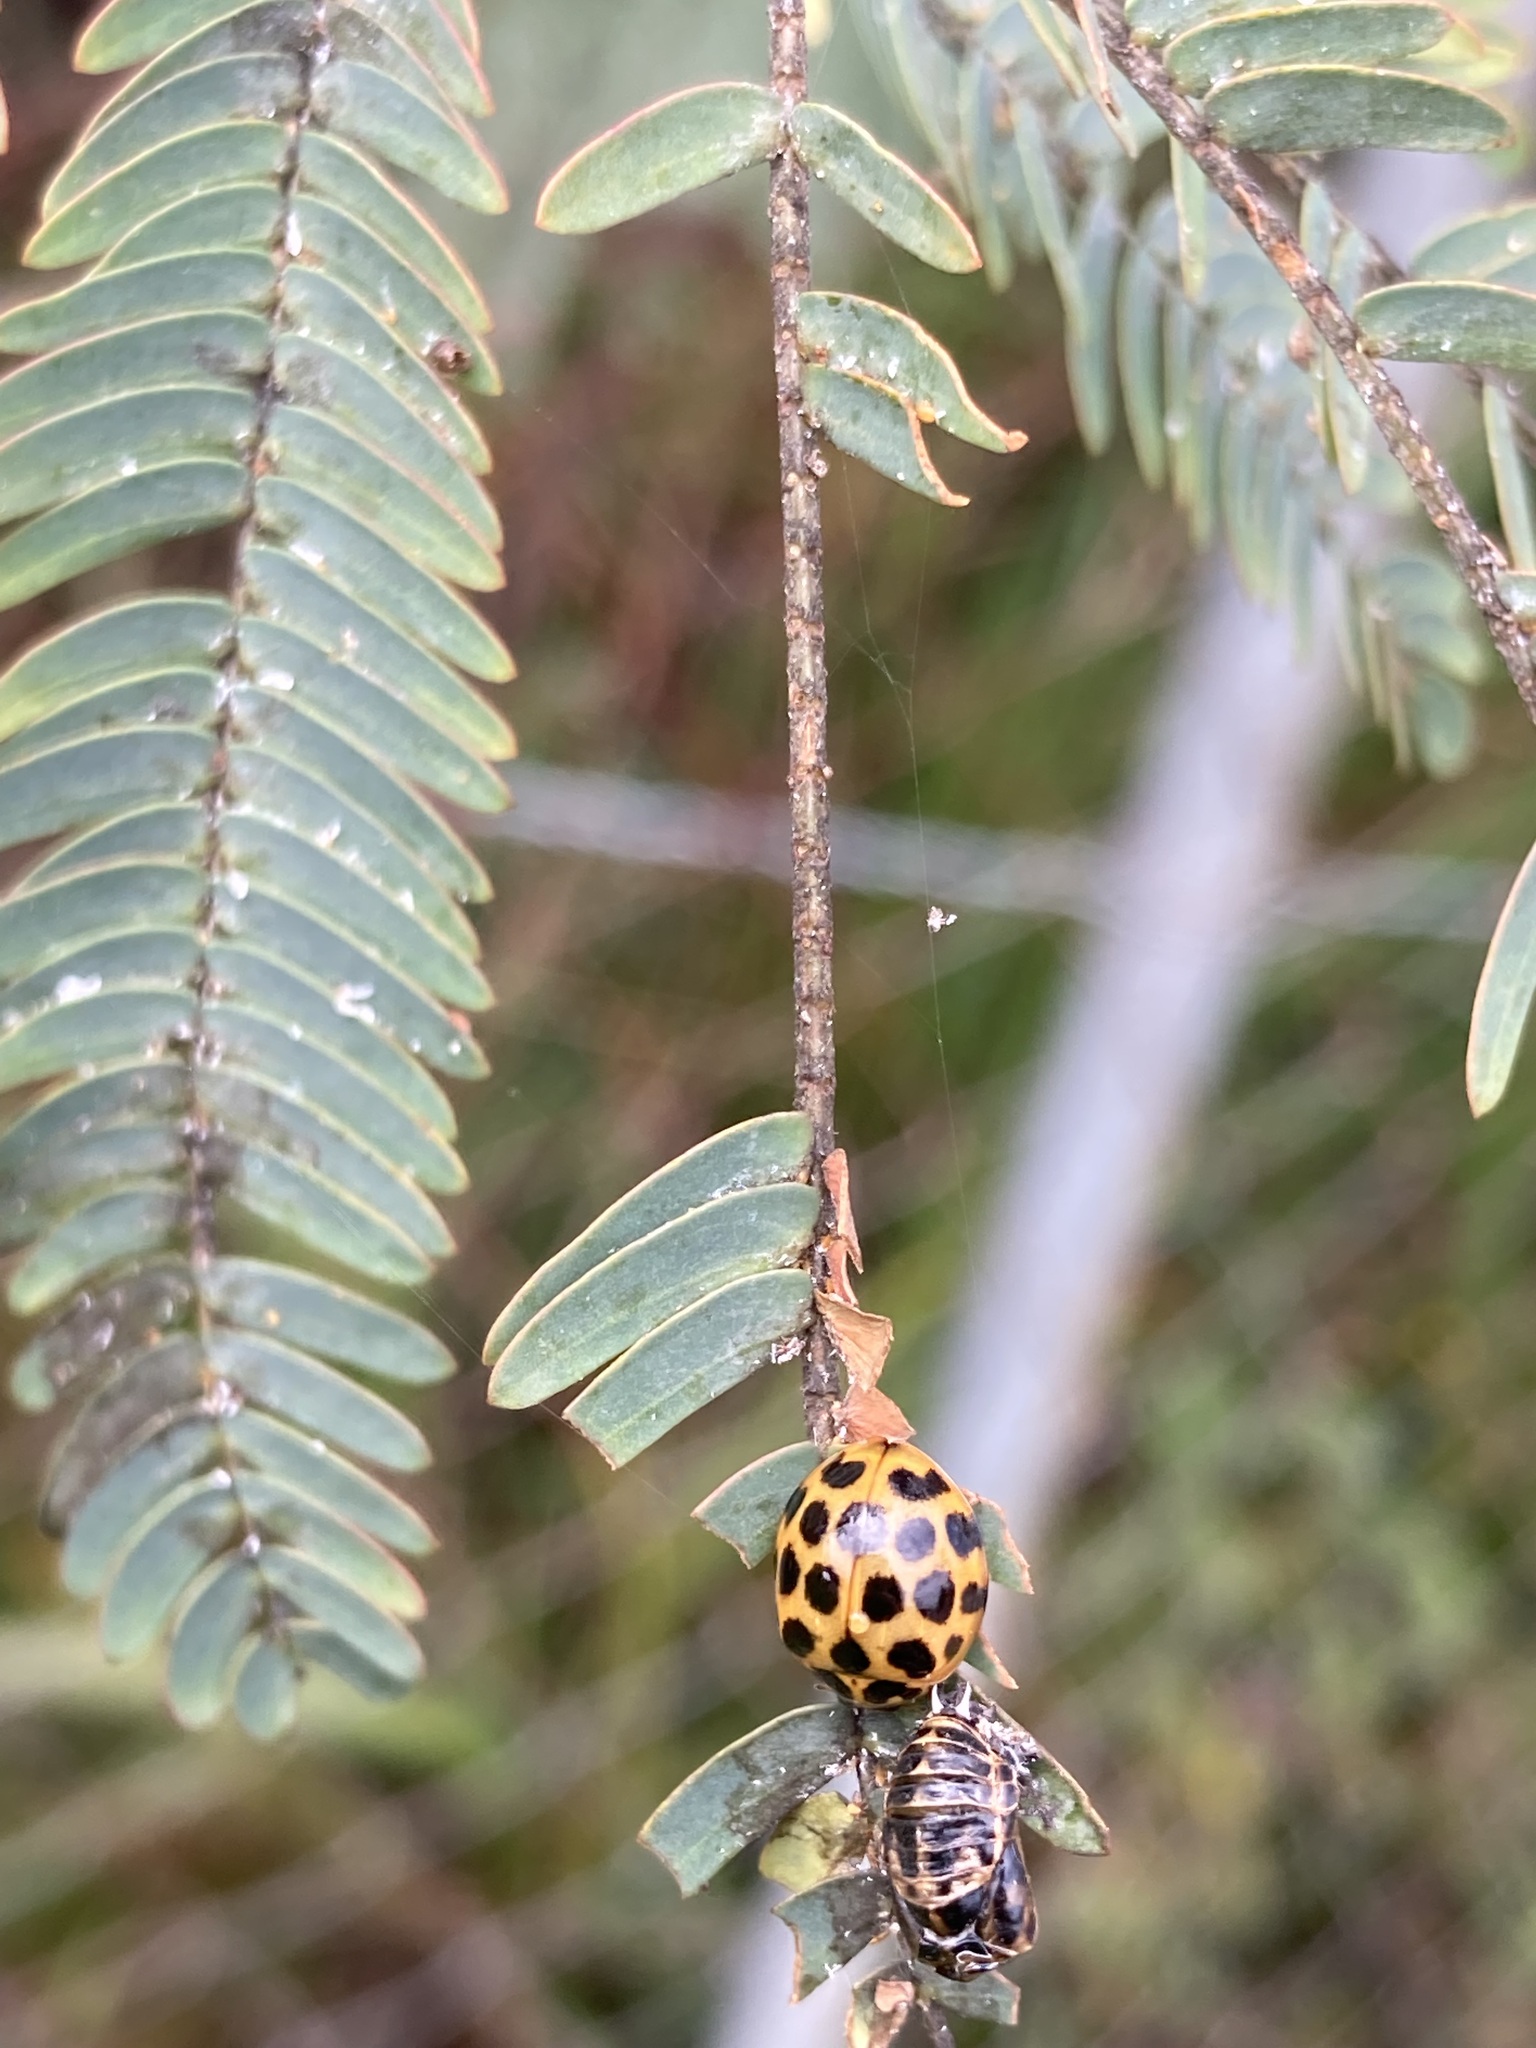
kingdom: Animalia
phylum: Arthropoda
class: Insecta
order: Coleoptera
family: Coccinellidae
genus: Harmonia
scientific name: Harmonia conformis
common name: Common spotted ladybird beetle
